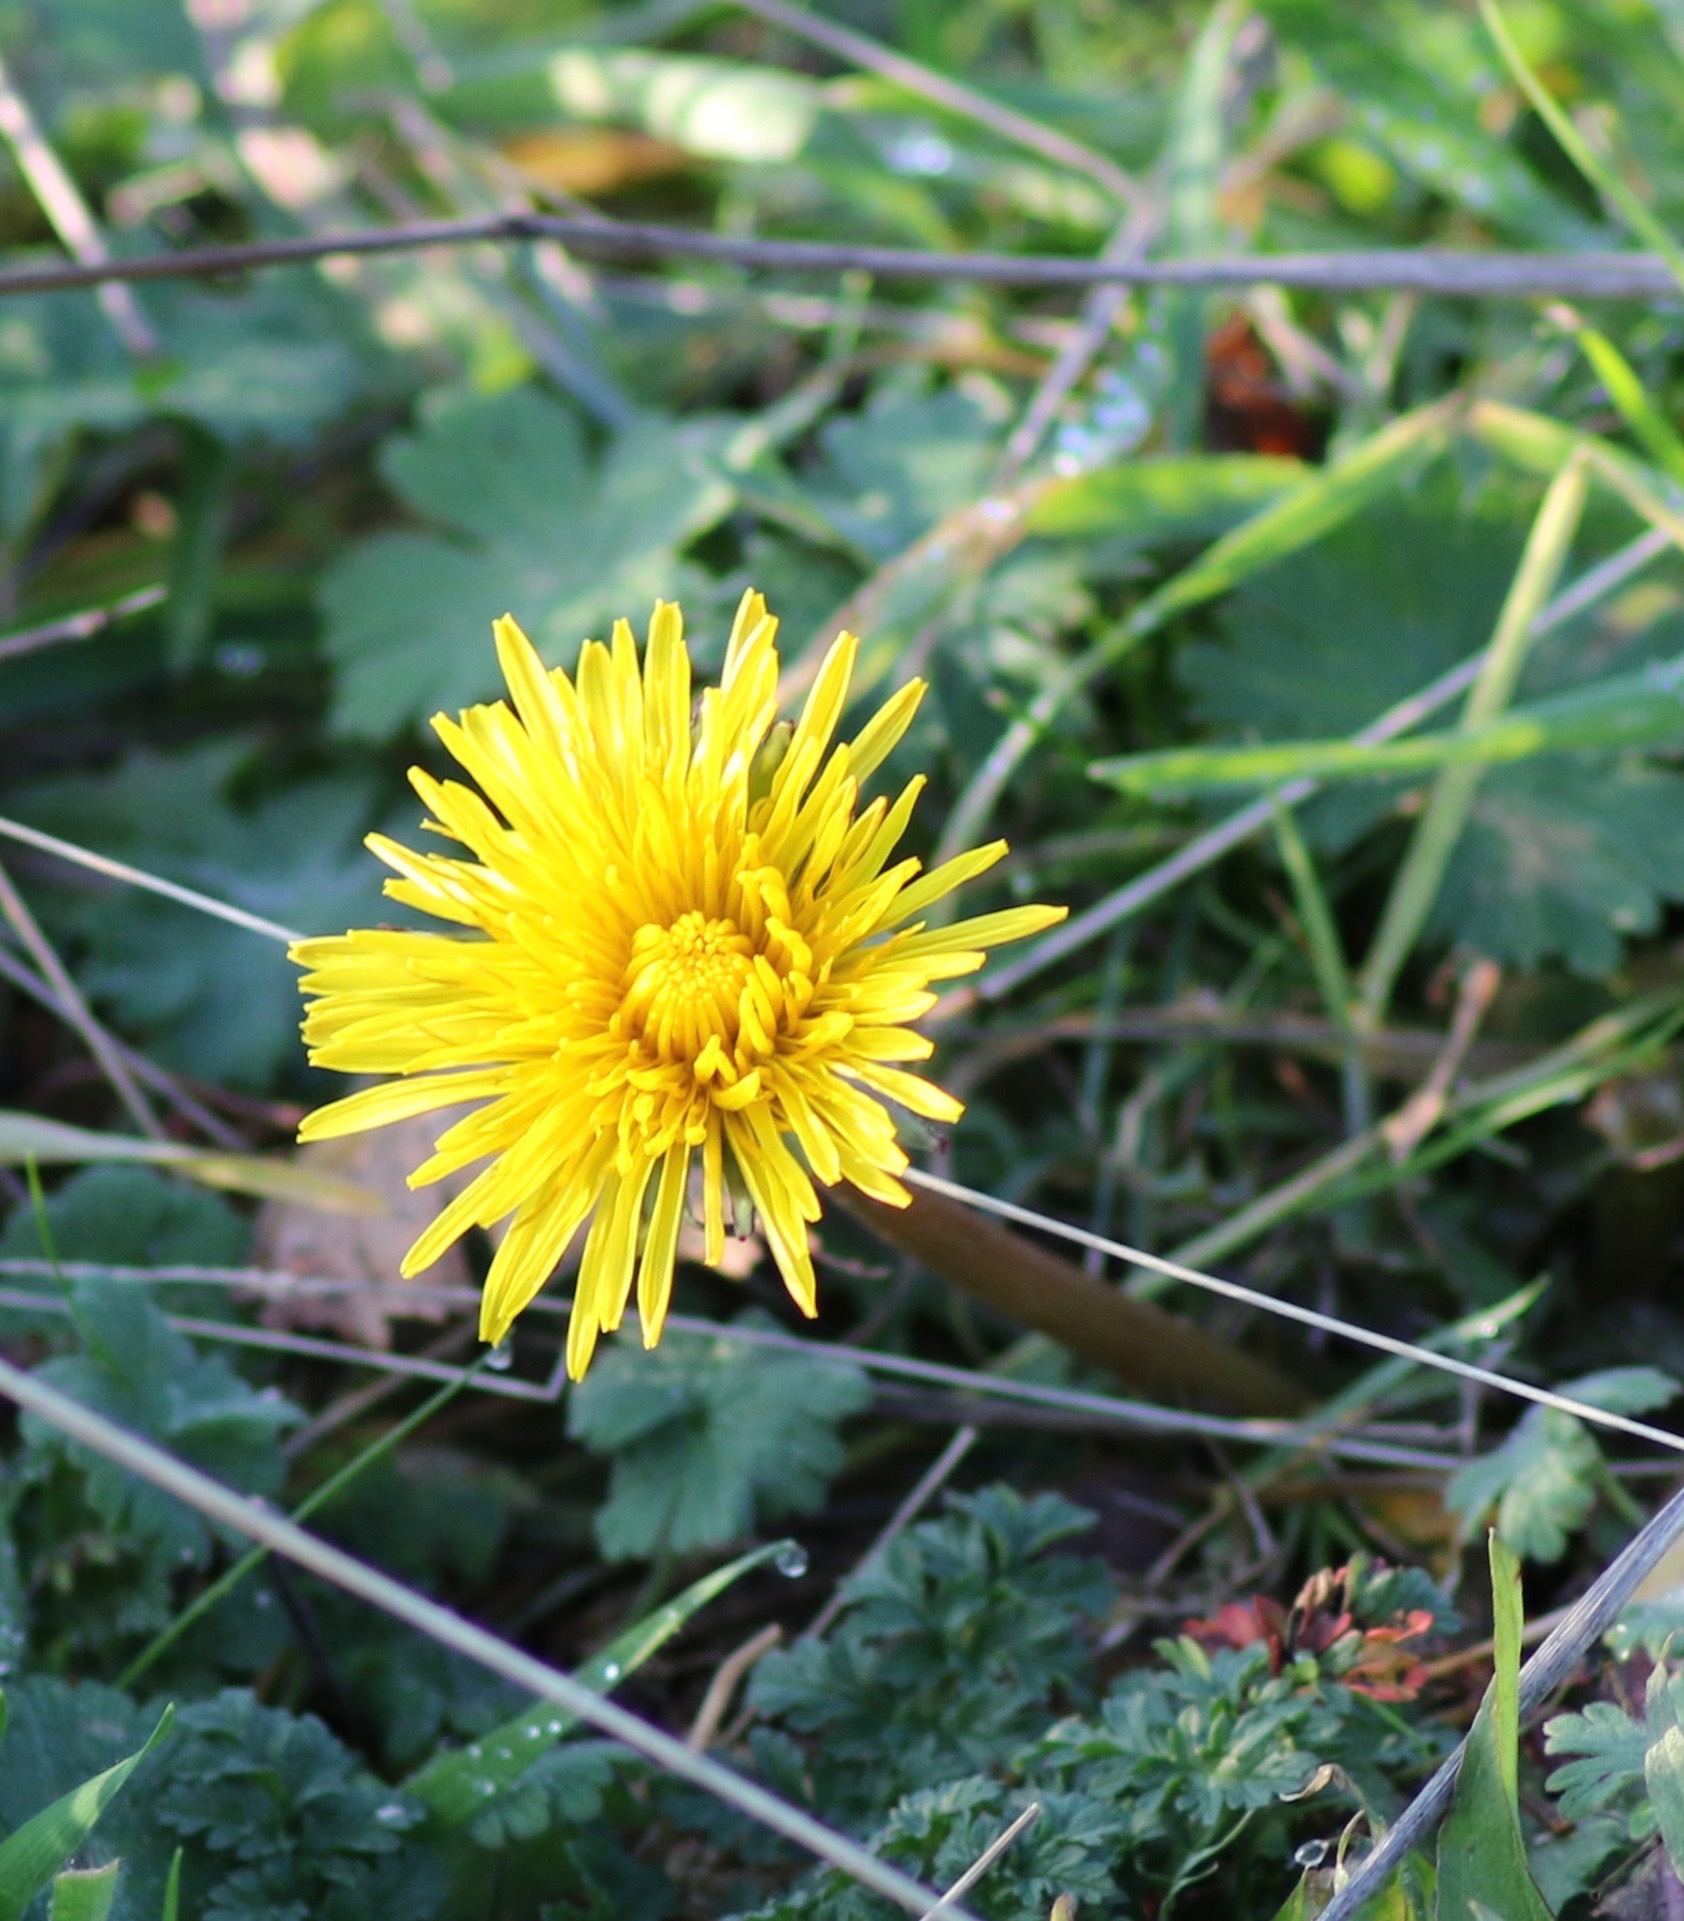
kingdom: Plantae
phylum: Tracheophyta
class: Magnoliopsida
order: Asterales
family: Asteraceae
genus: Taraxacum
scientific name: Taraxacum officinale
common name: Common dandelion
